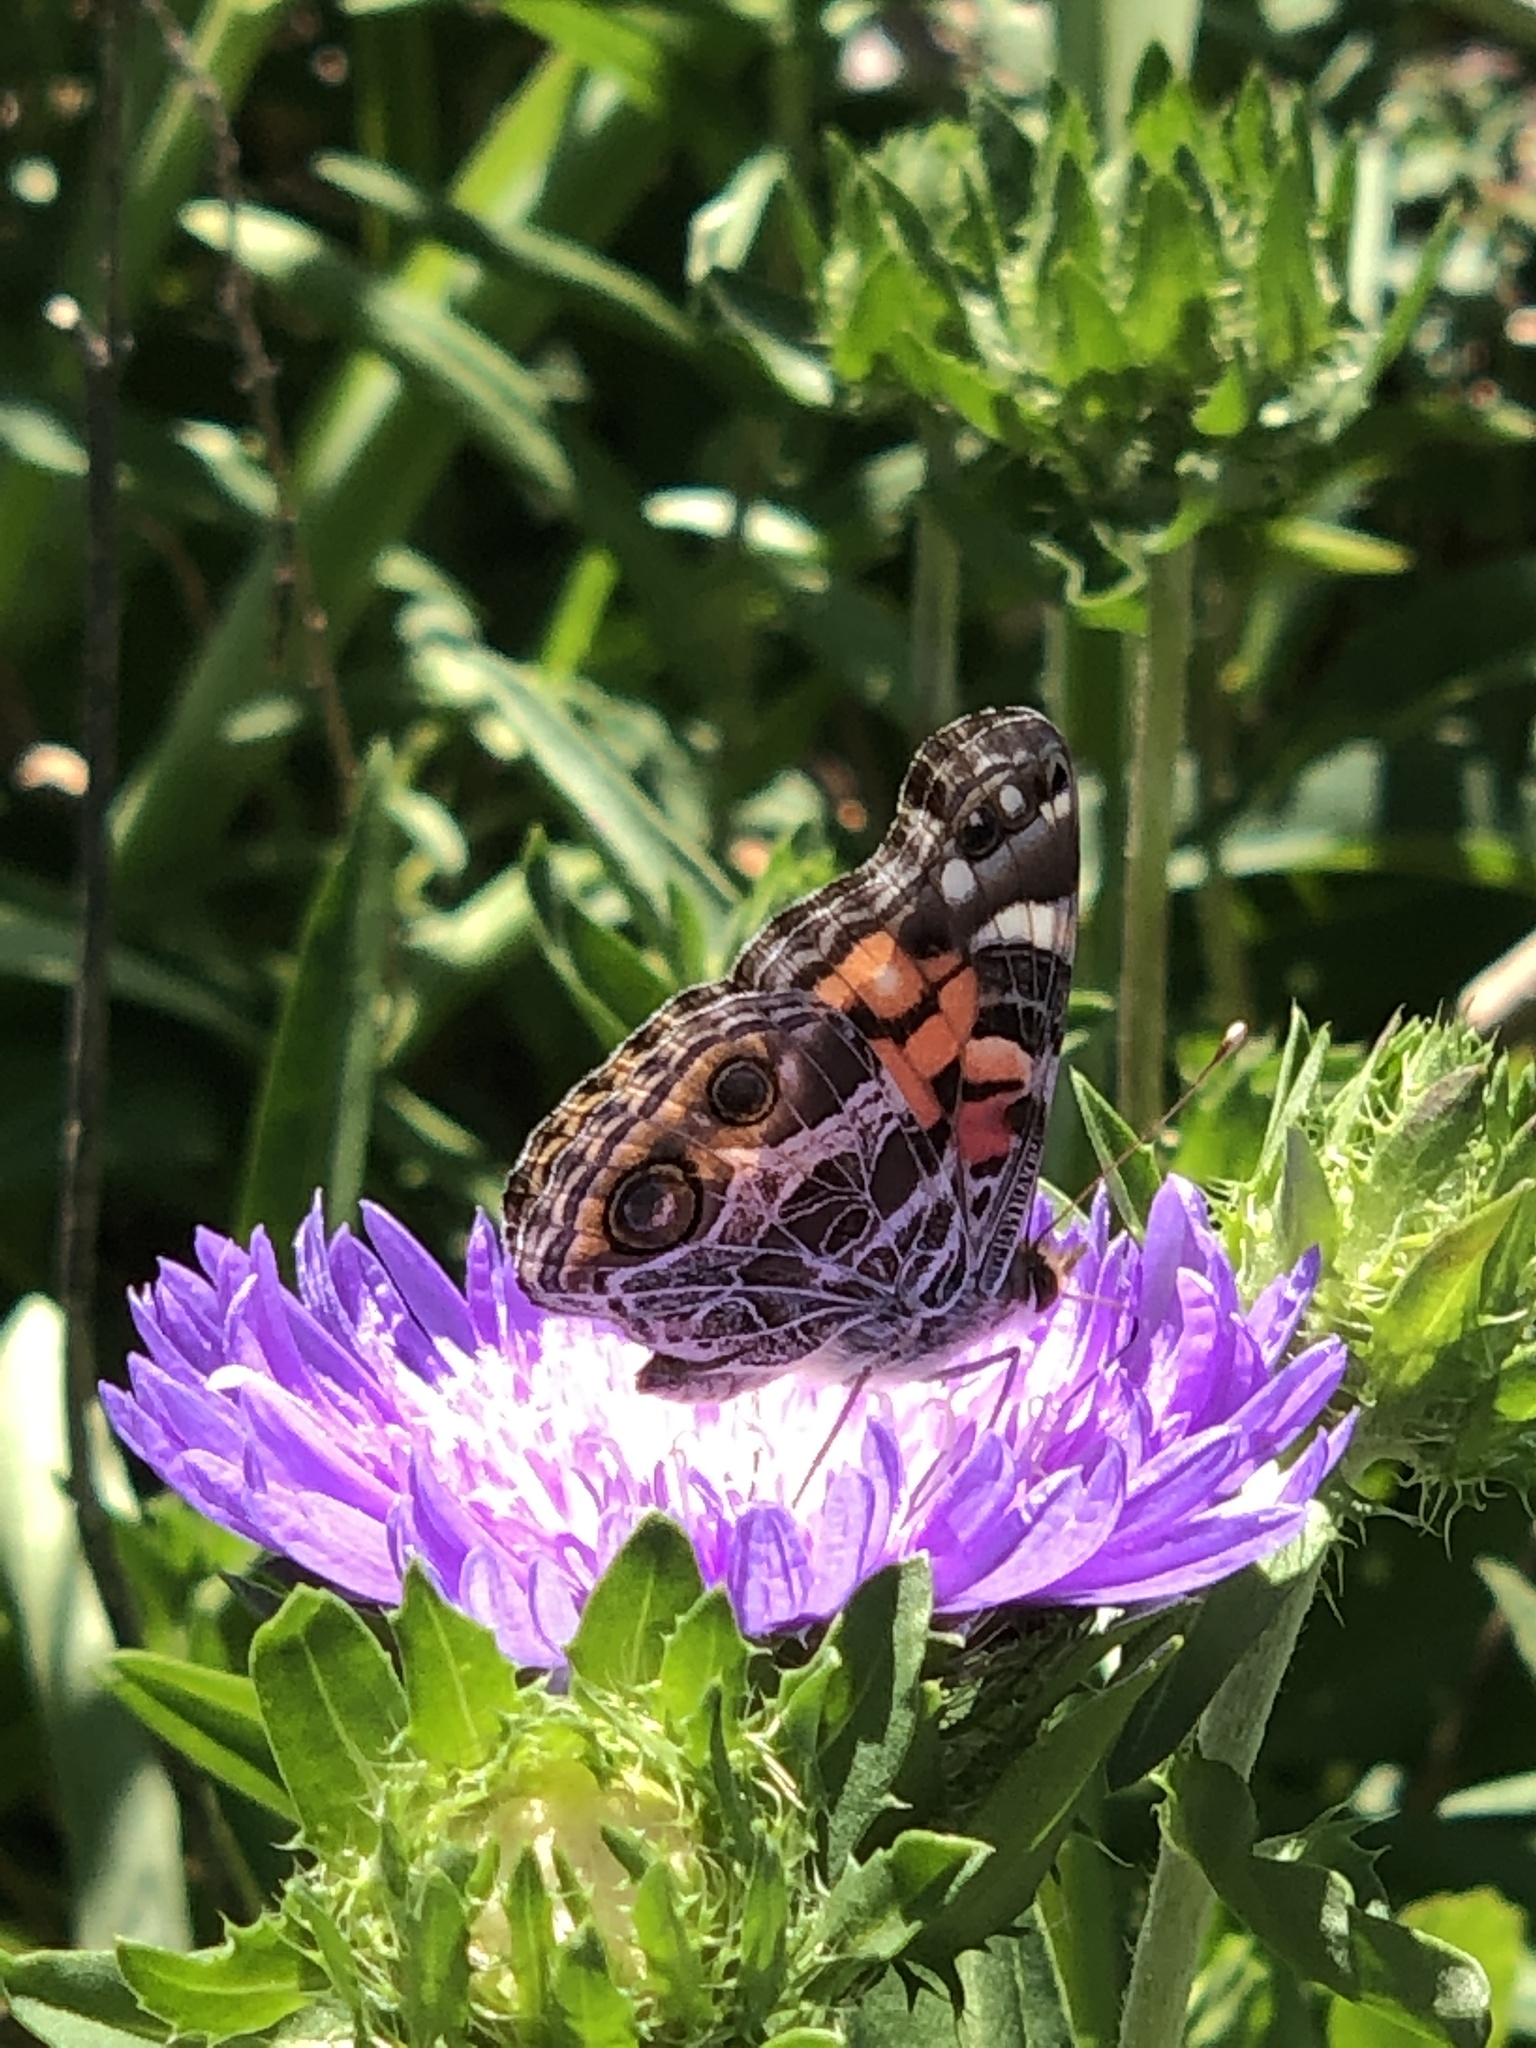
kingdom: Animalia
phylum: Arthropoda
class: Insecta
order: Lepidoptera
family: Nymphalidae
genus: Vanessa
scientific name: Vanessa virginiensis
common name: American lady
